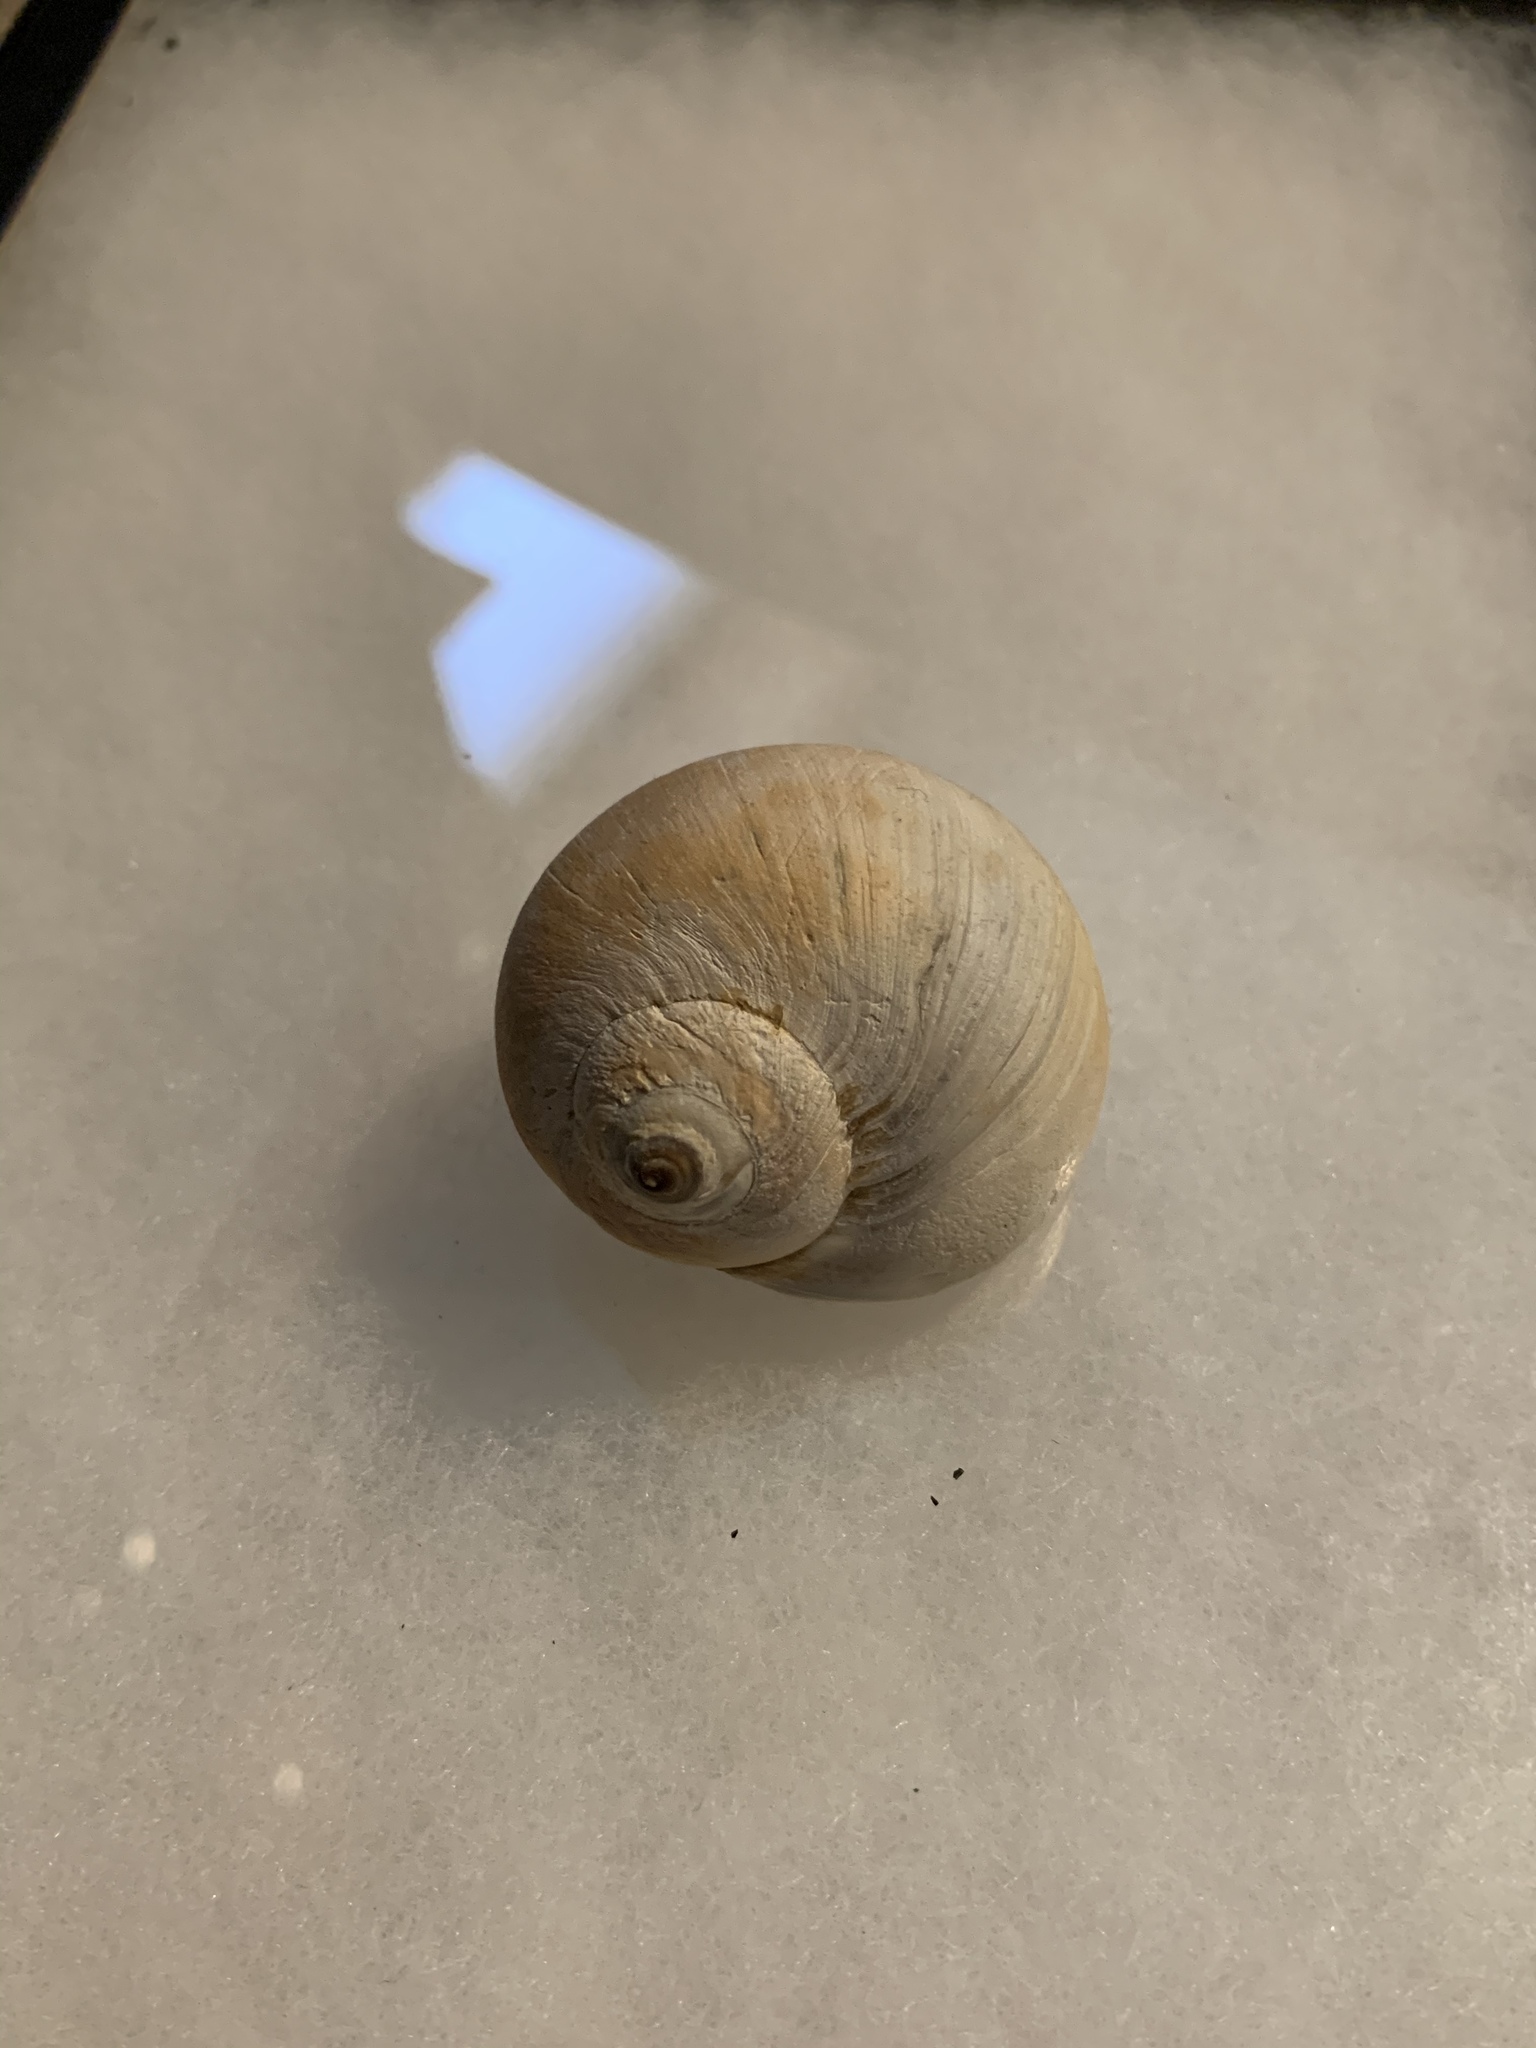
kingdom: Animalia
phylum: Mollusca
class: Gastropoda
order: Littorinimorpha
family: Naticidae
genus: Euspira
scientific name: Euspira heros
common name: Common northern moonsnail
